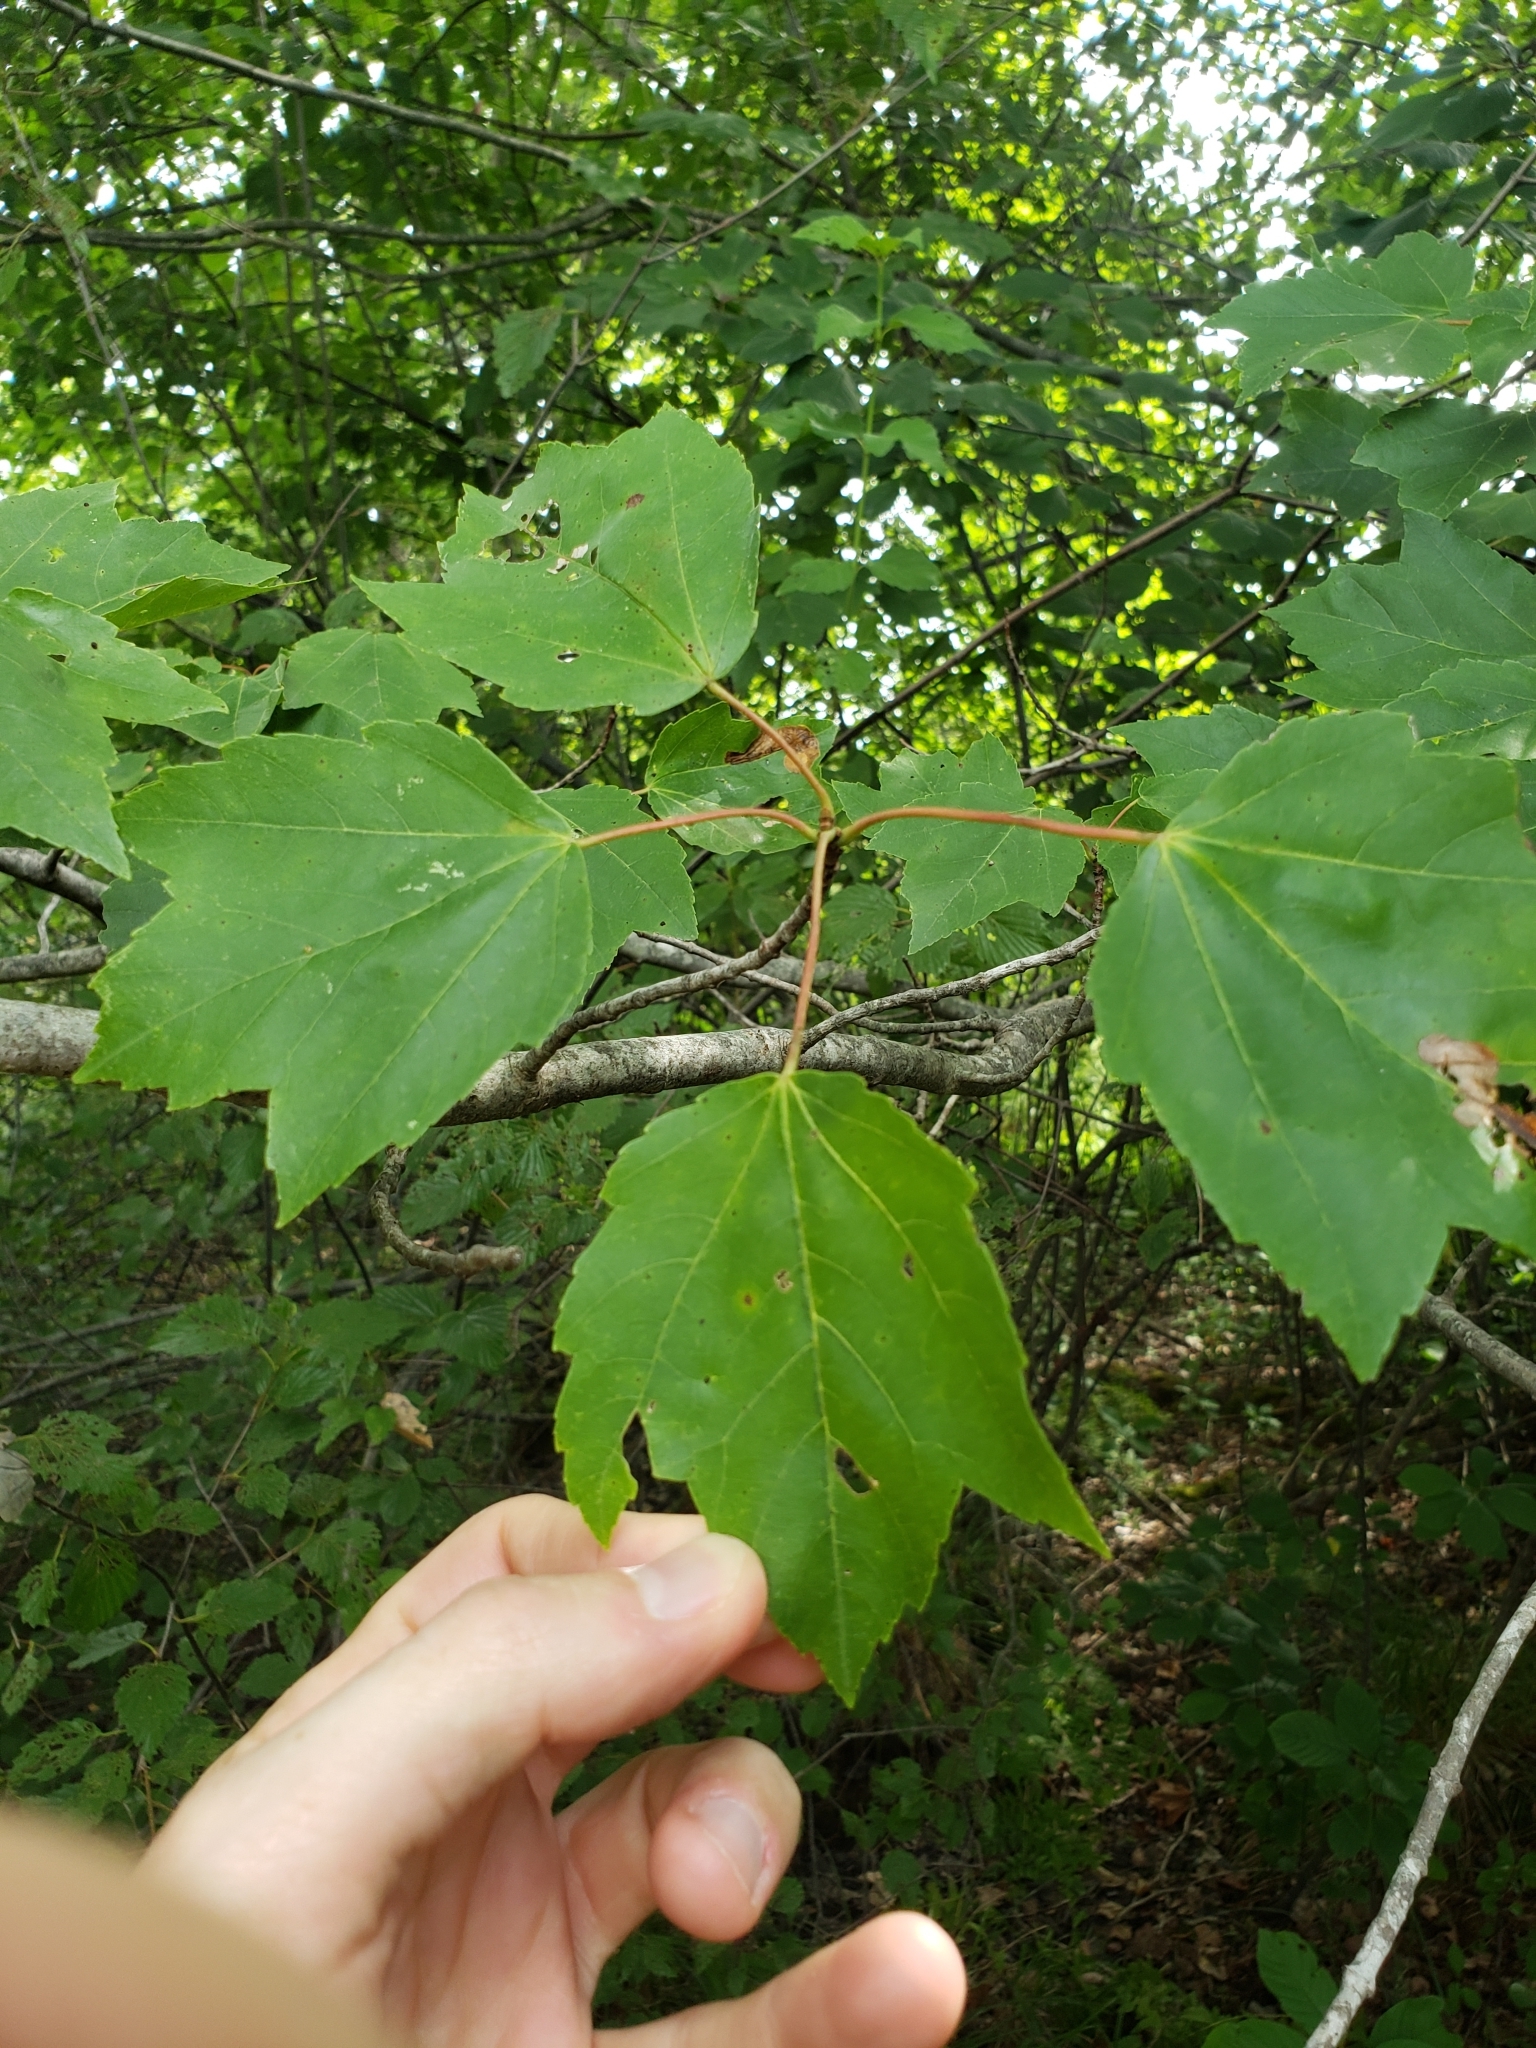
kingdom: Plantae
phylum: Tracheophyta
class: Magnoliopsida
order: Sapindales
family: Sapindaceae
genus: Acer
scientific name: Acer rubrum
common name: Red maple
